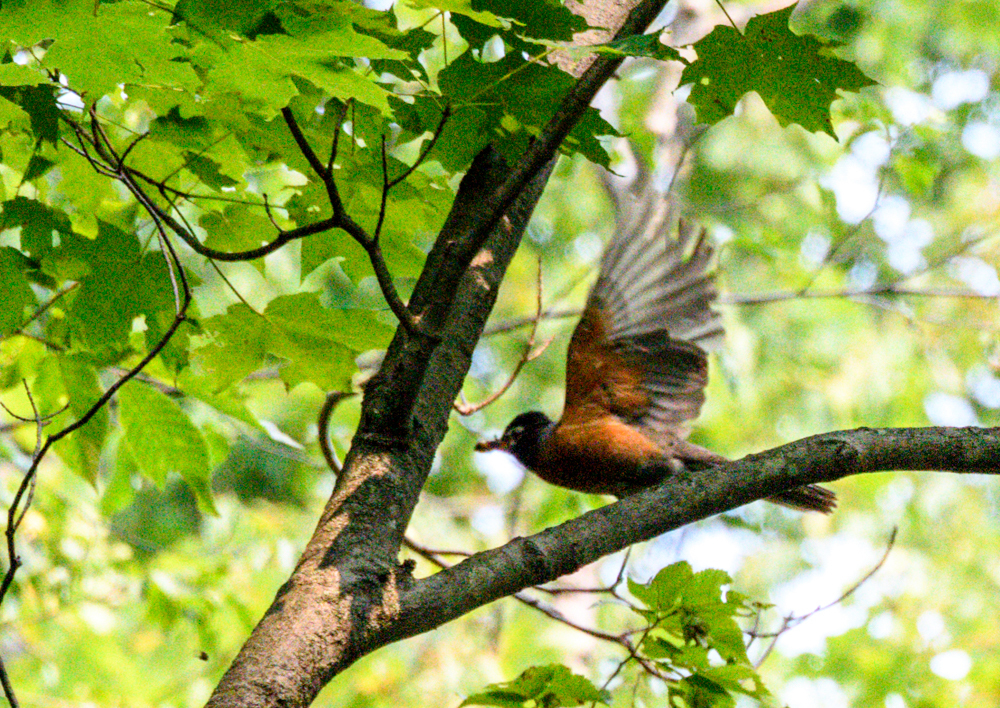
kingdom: Animalia
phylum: Chordata
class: Aves
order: Passeriformes
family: Turdidae
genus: Turdus
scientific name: Turdus migratorius
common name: American robin
